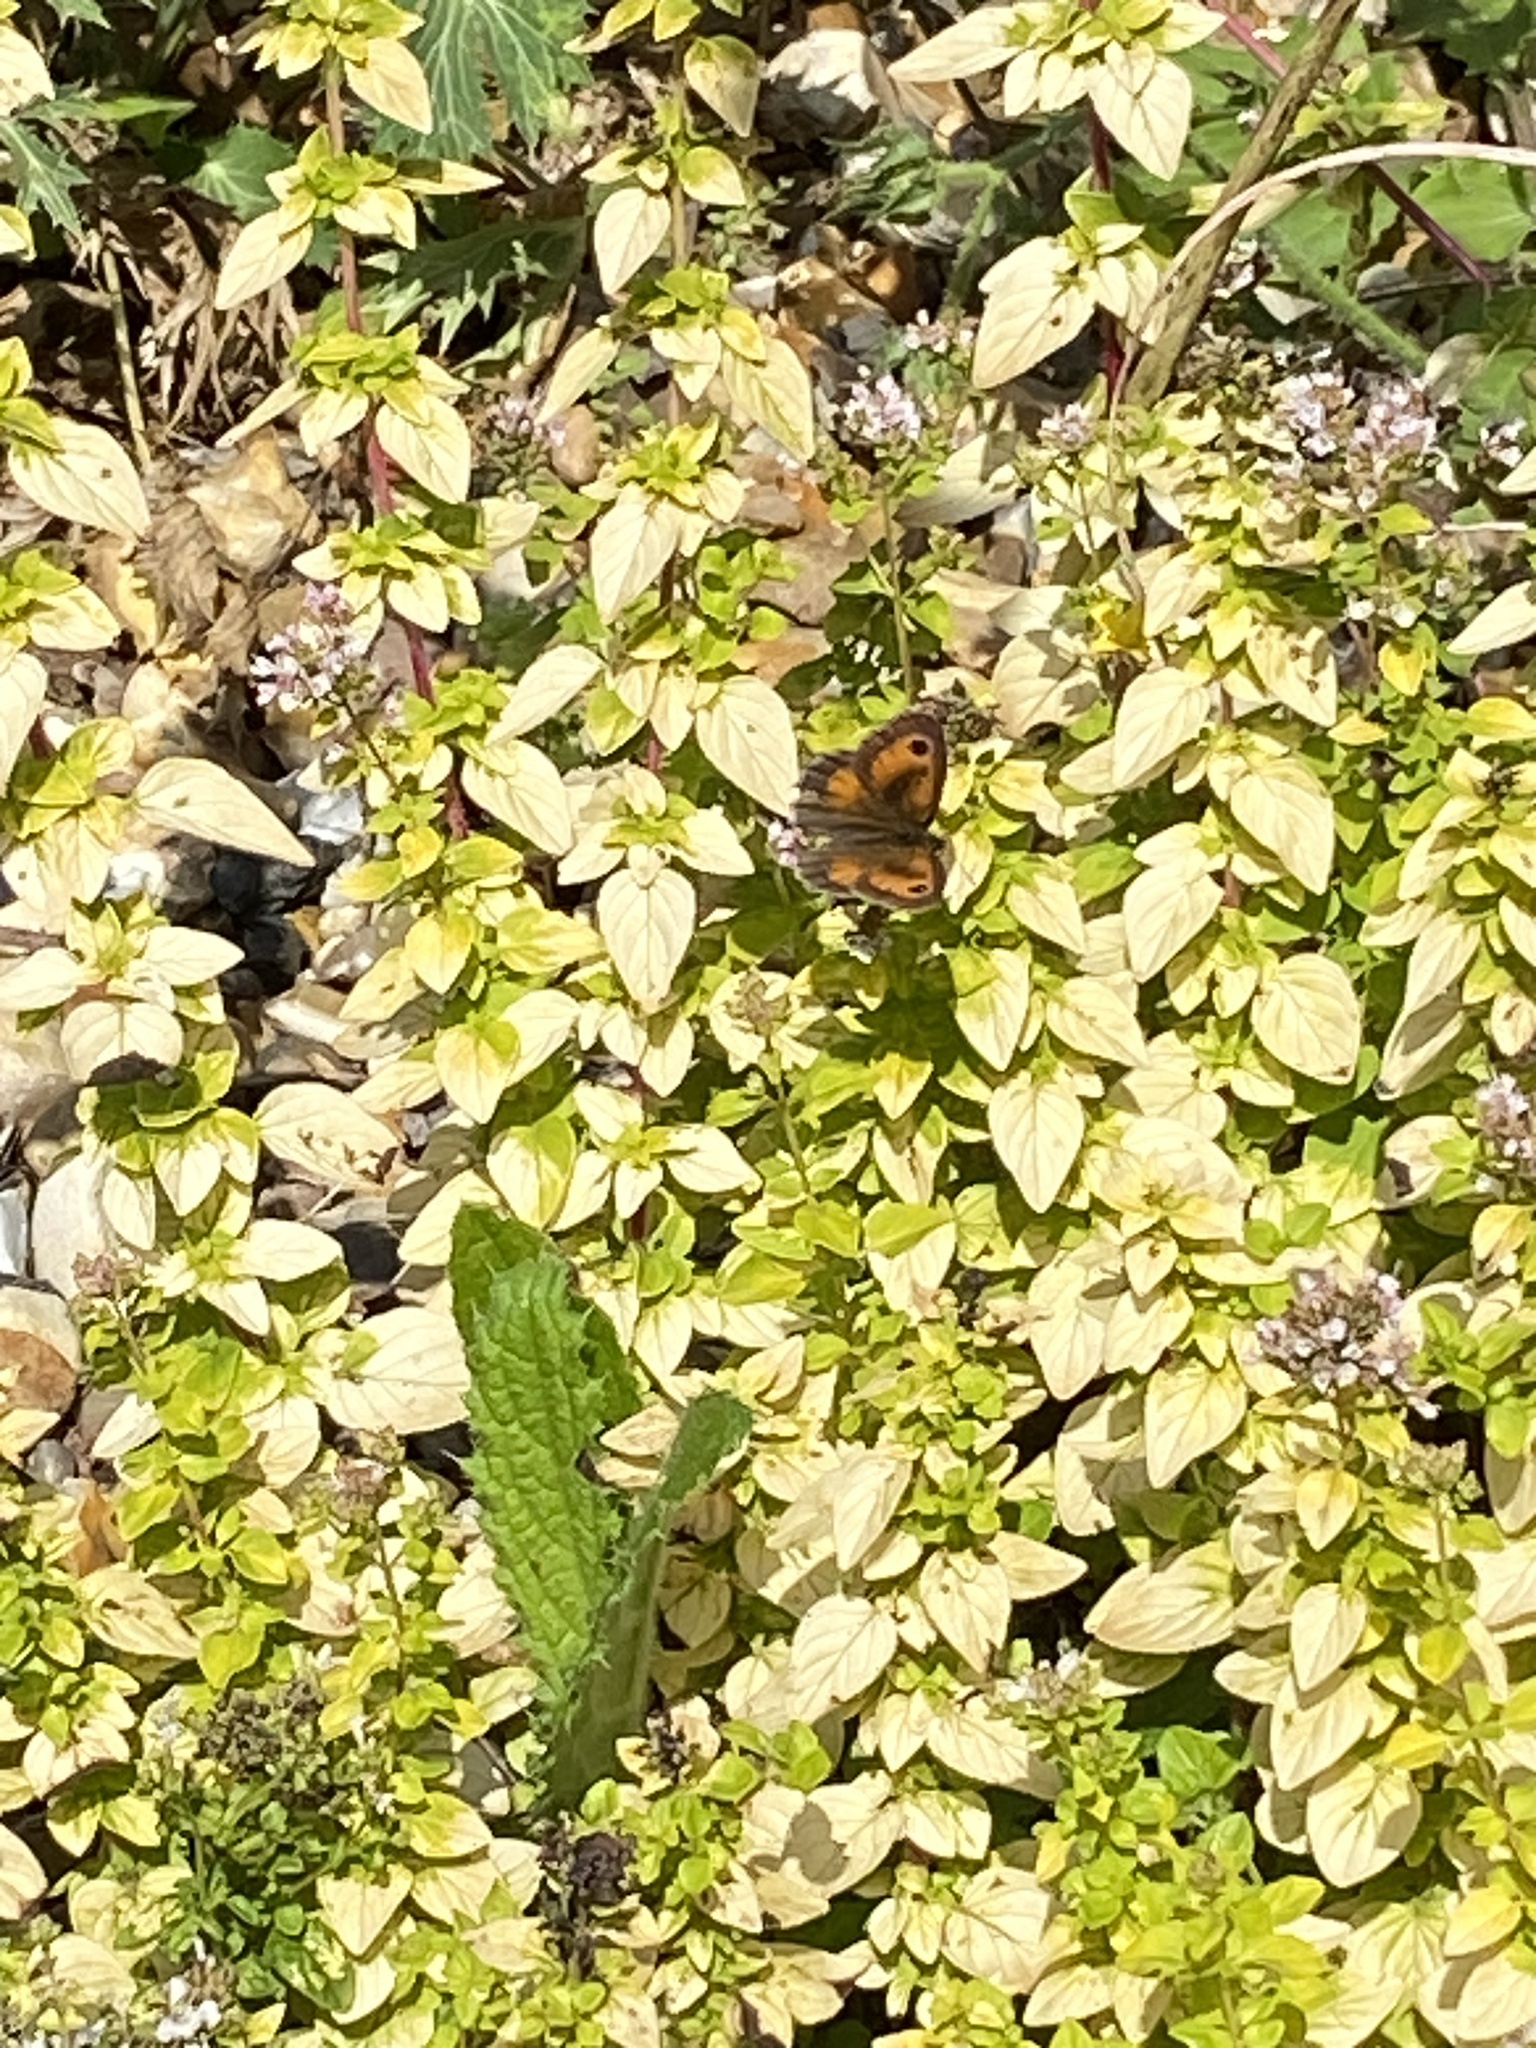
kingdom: Animalia
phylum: Arthropoda
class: Insecta
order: Lepidoptera
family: Nymphalidae
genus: Pyronia
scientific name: Pyronia tithonus
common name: Gatekeeper
